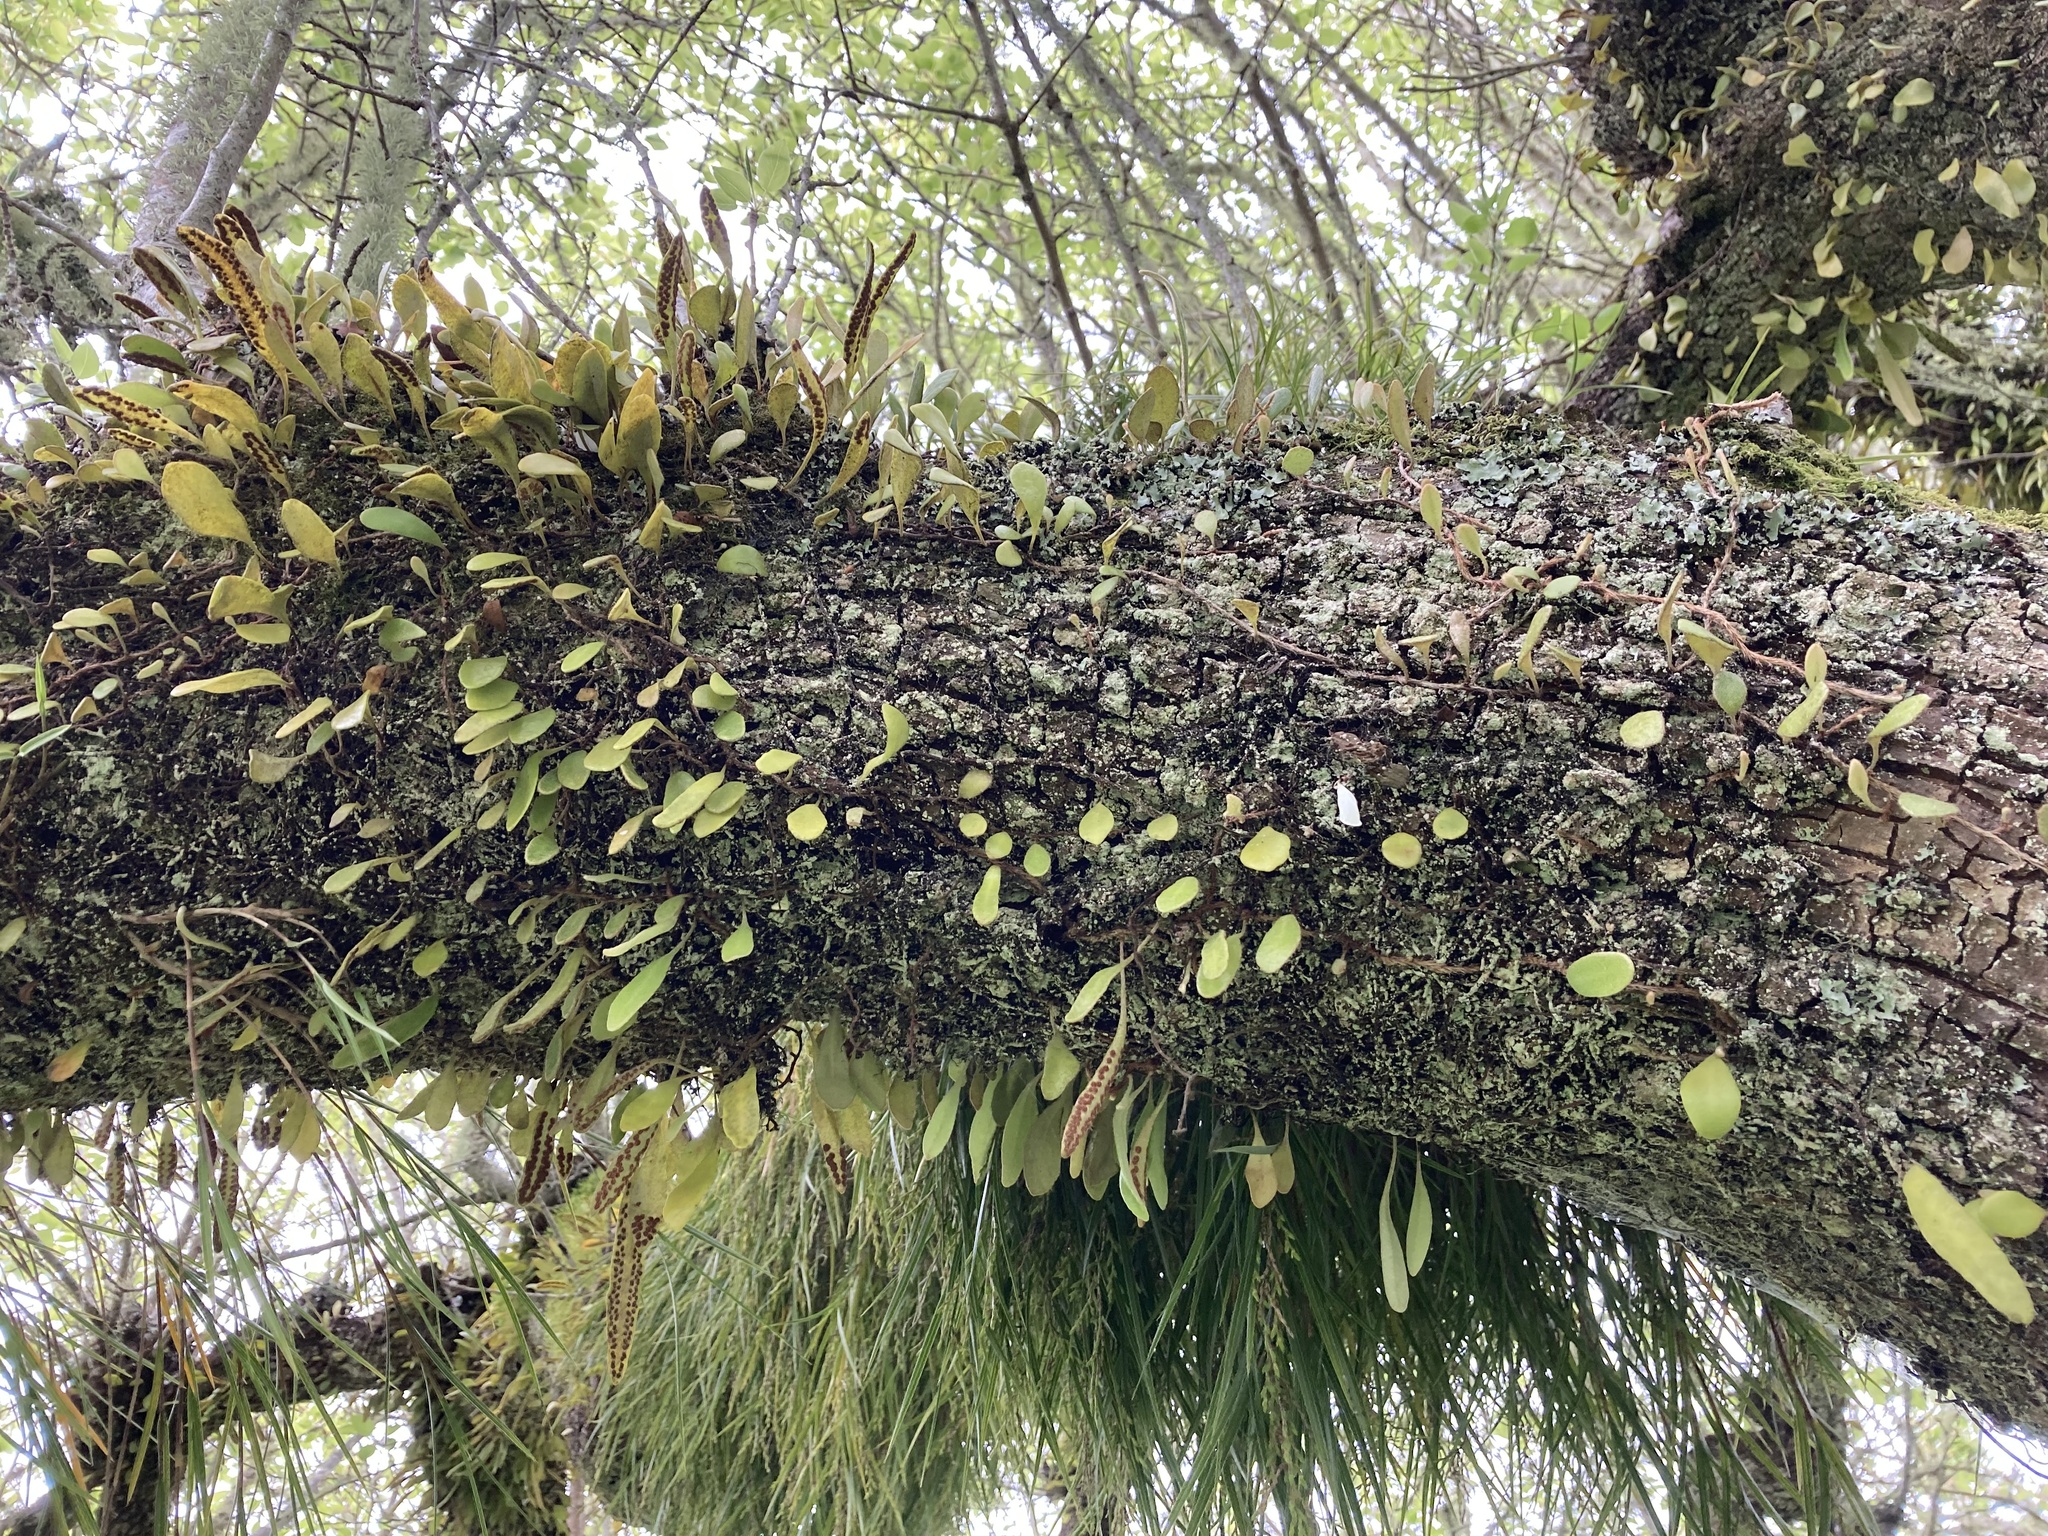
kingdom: Plantae
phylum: Tracheophyta
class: Polypodiopsida
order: Polypodiales
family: Polypodiaceae
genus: Pyrrosia
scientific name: Pyrrosia eleagnifolia
